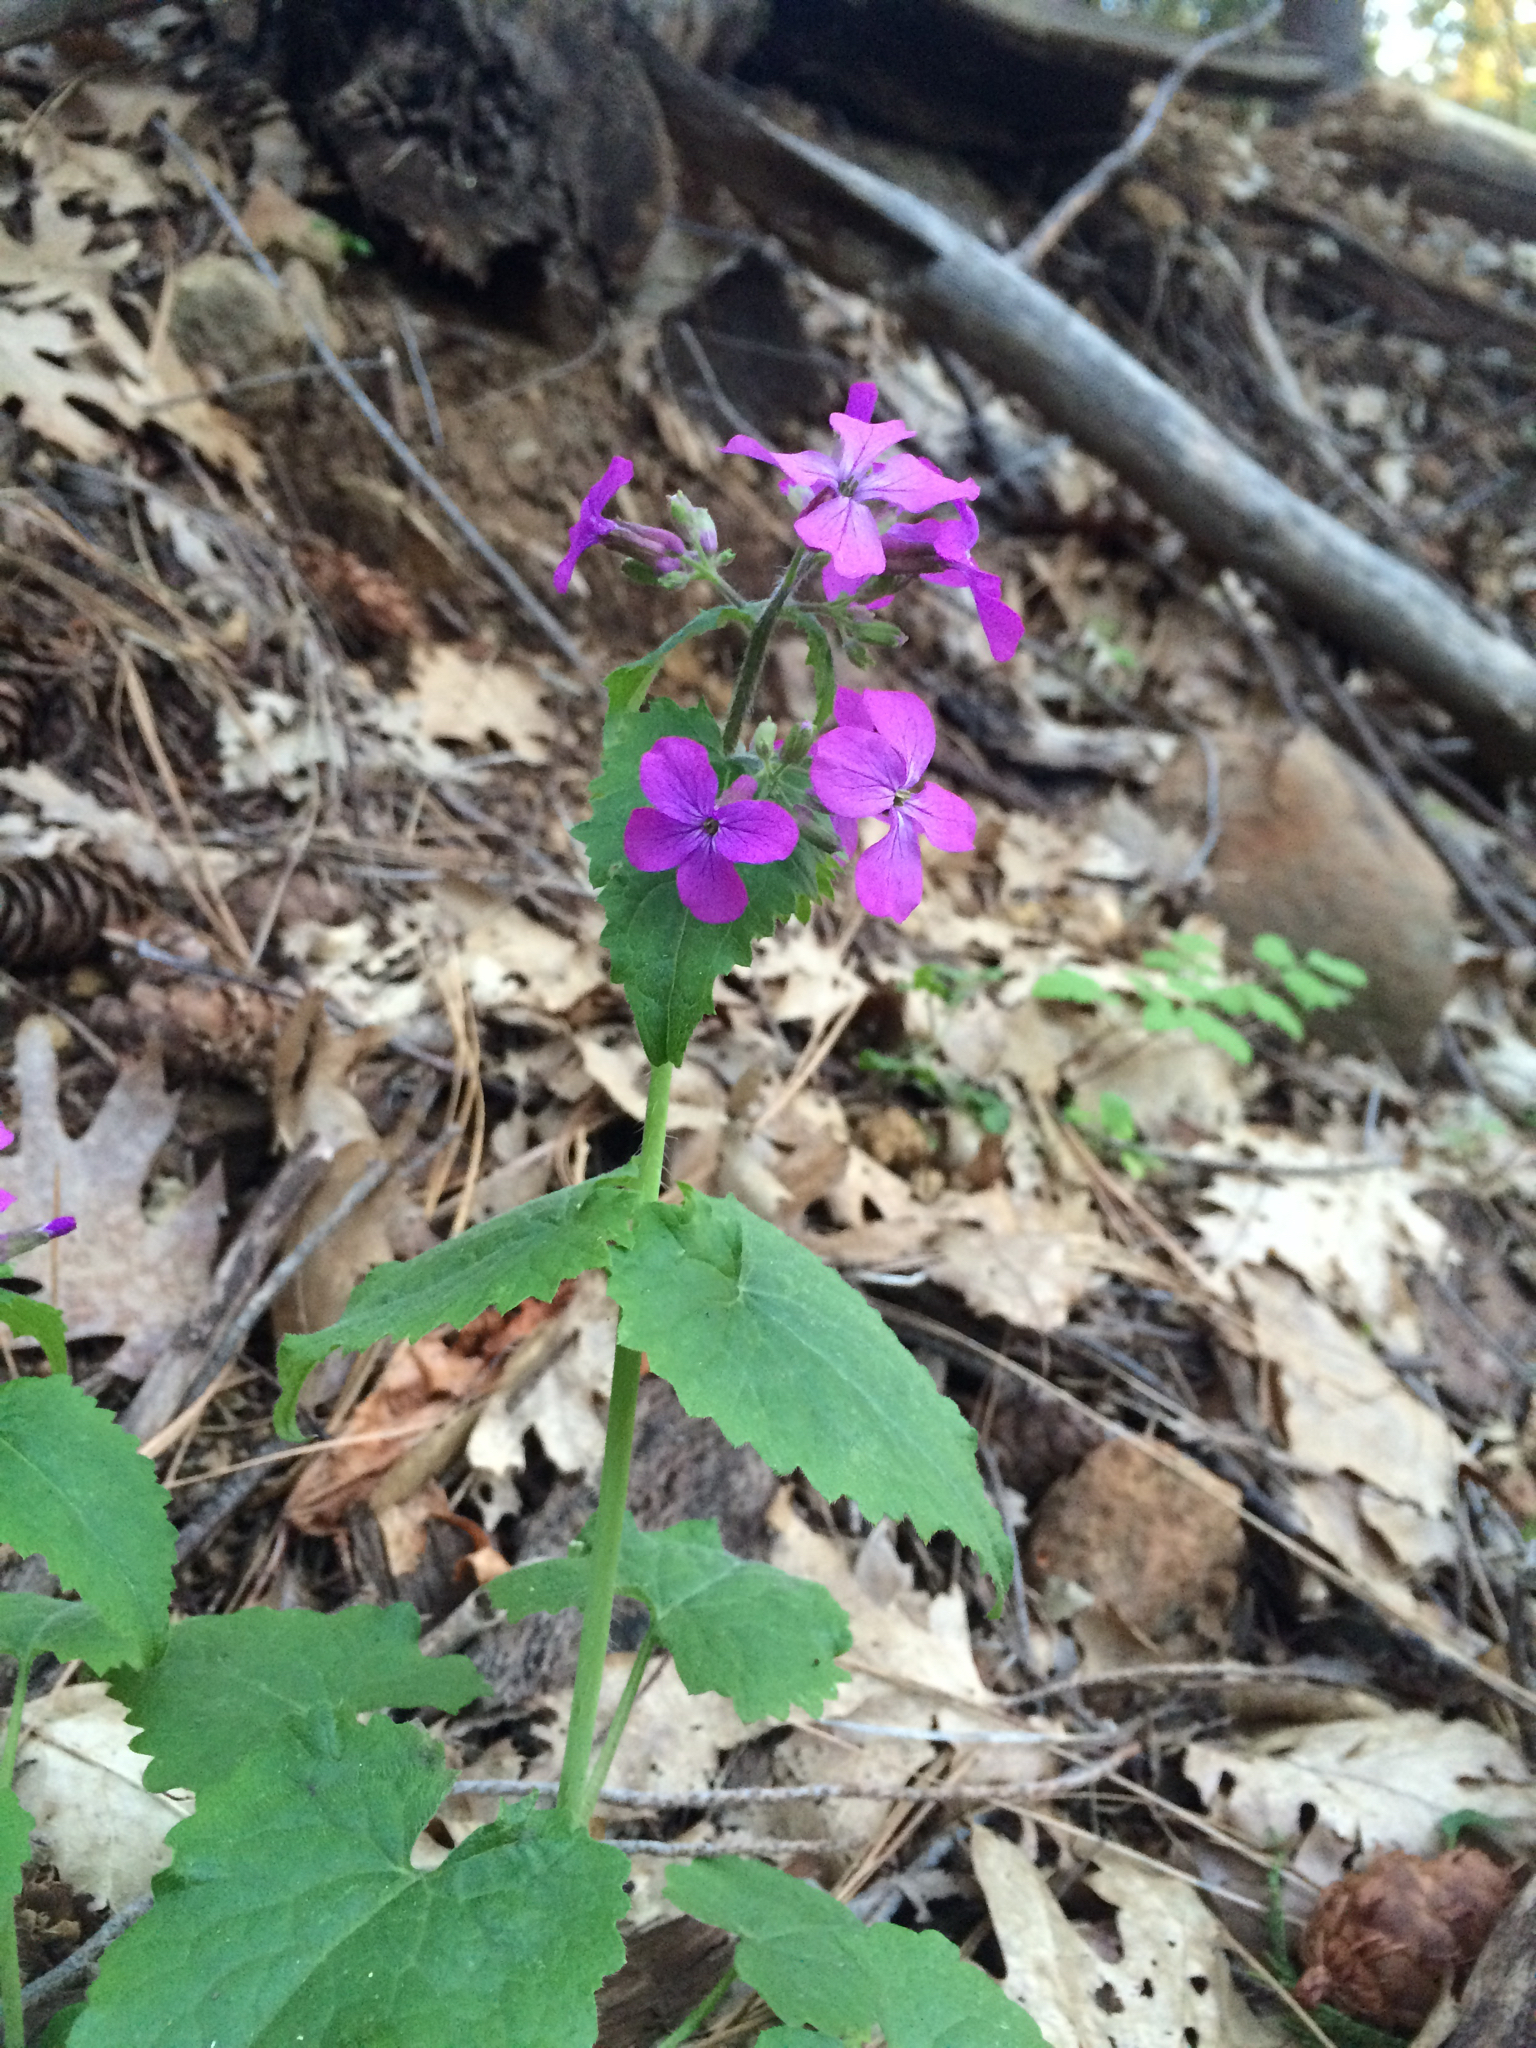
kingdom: Plantae
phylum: Tracheophyta
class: Magnoliopsida
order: Brassicales
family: Brassicaceae
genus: Lunaria
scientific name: Lunaria annua
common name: Honesty
